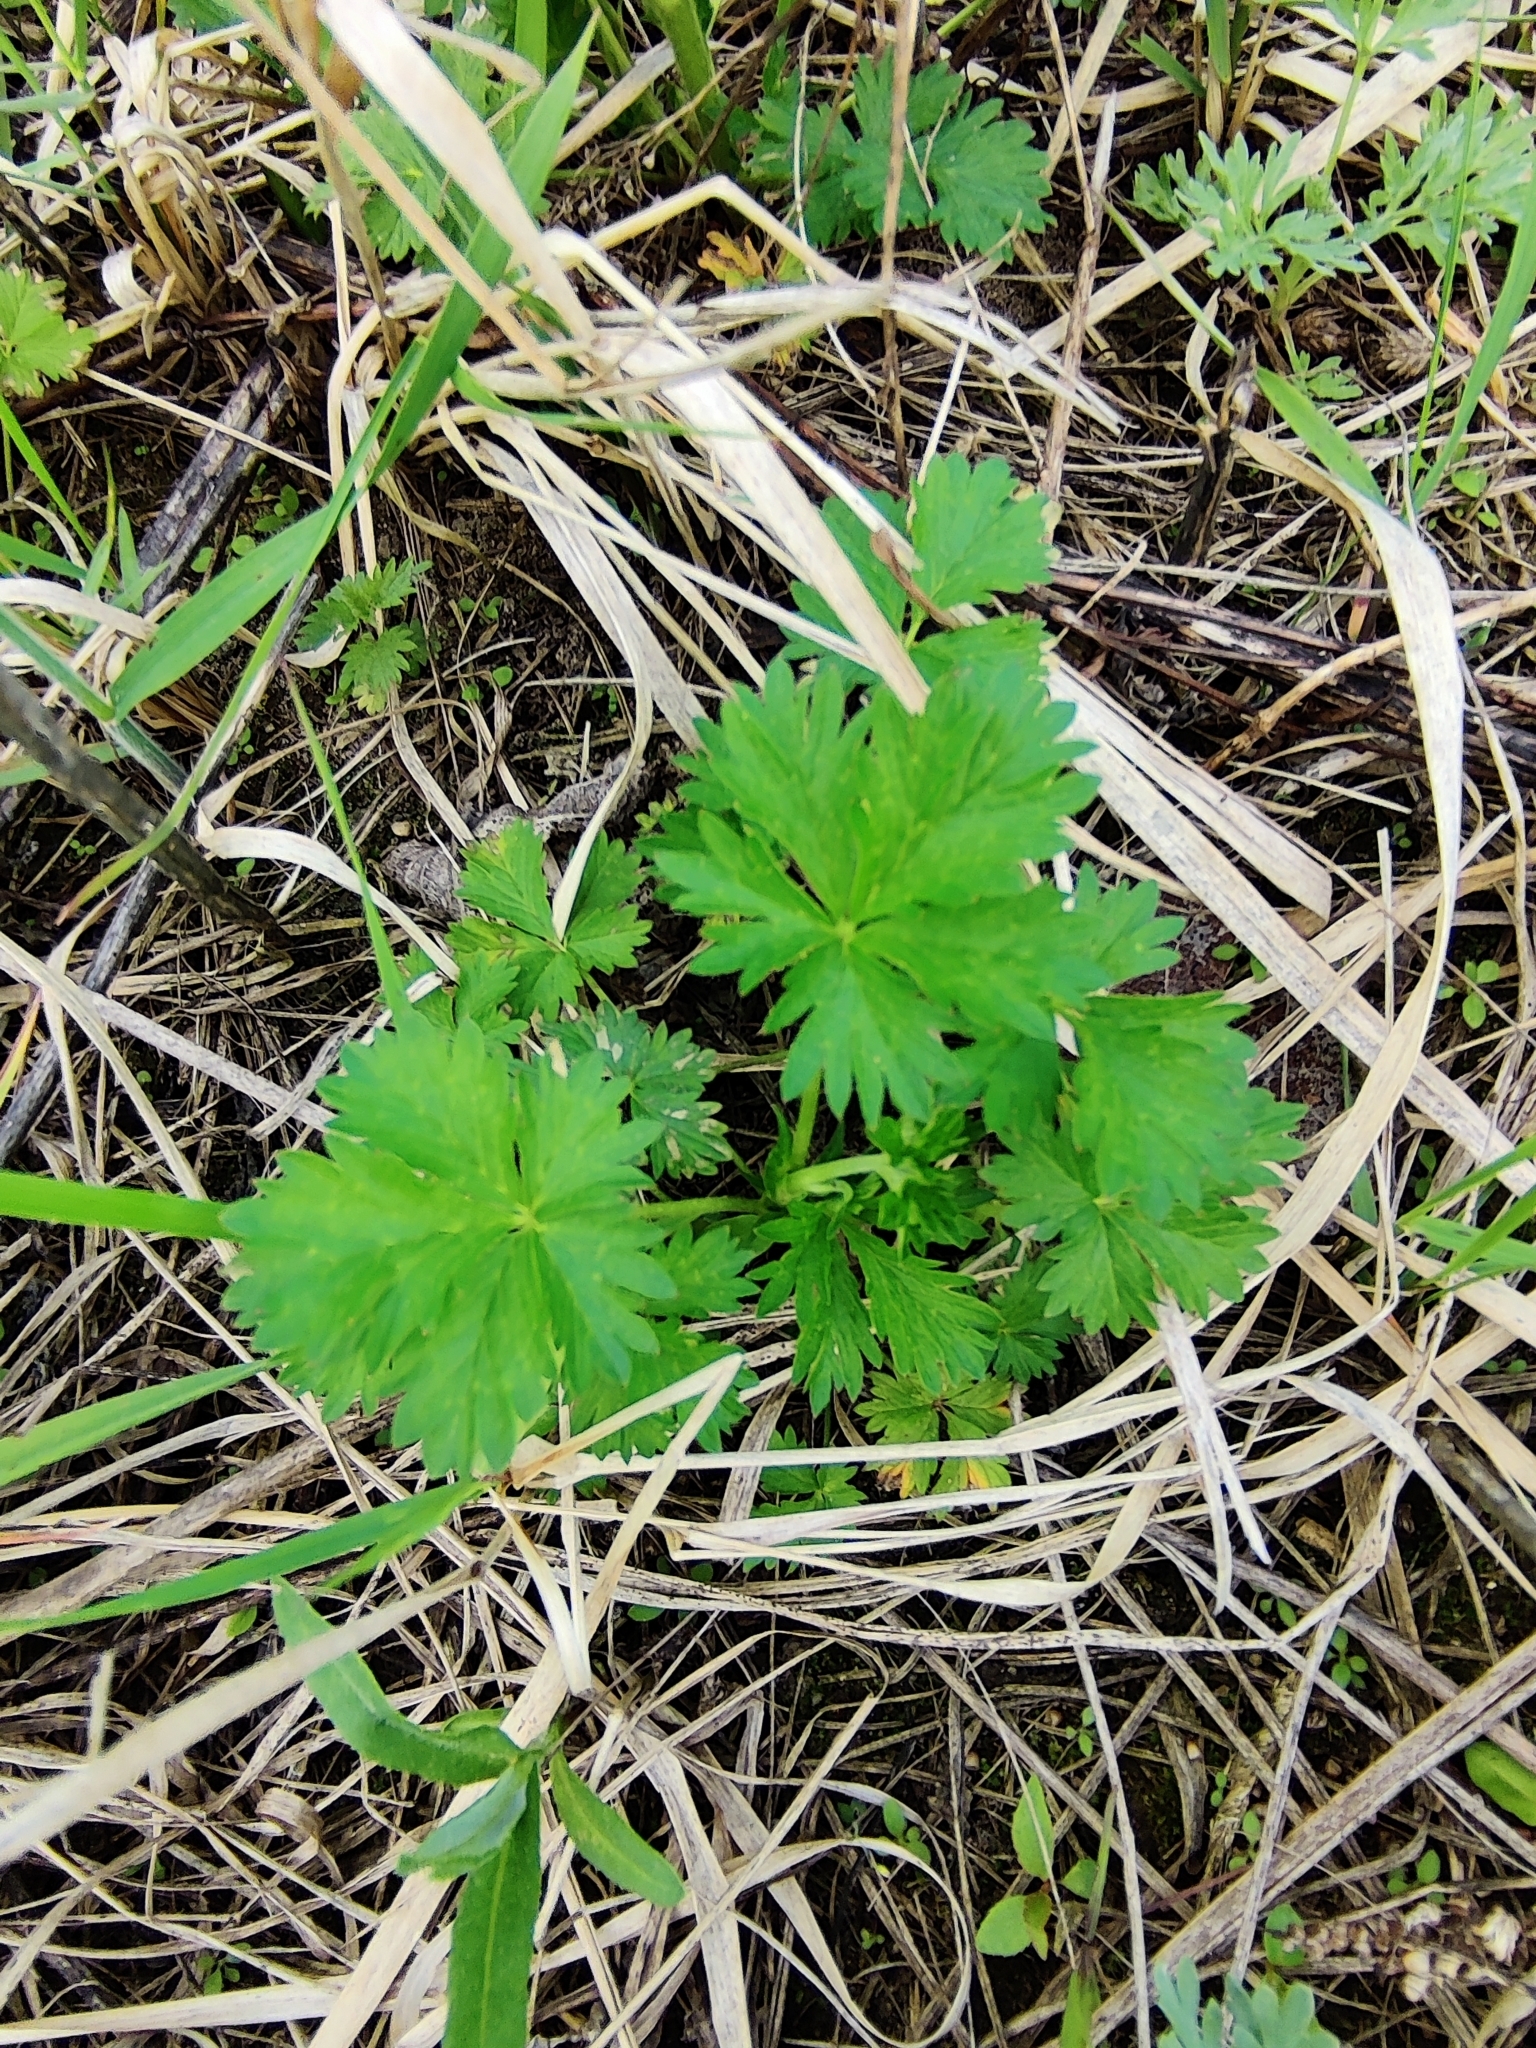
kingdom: Plantae
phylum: Tracheophyta
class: Magnoliopsida
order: Rosales
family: Rosaceae
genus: Potentilla
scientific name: Potentilla intermedia
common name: Downy cinquefoil
